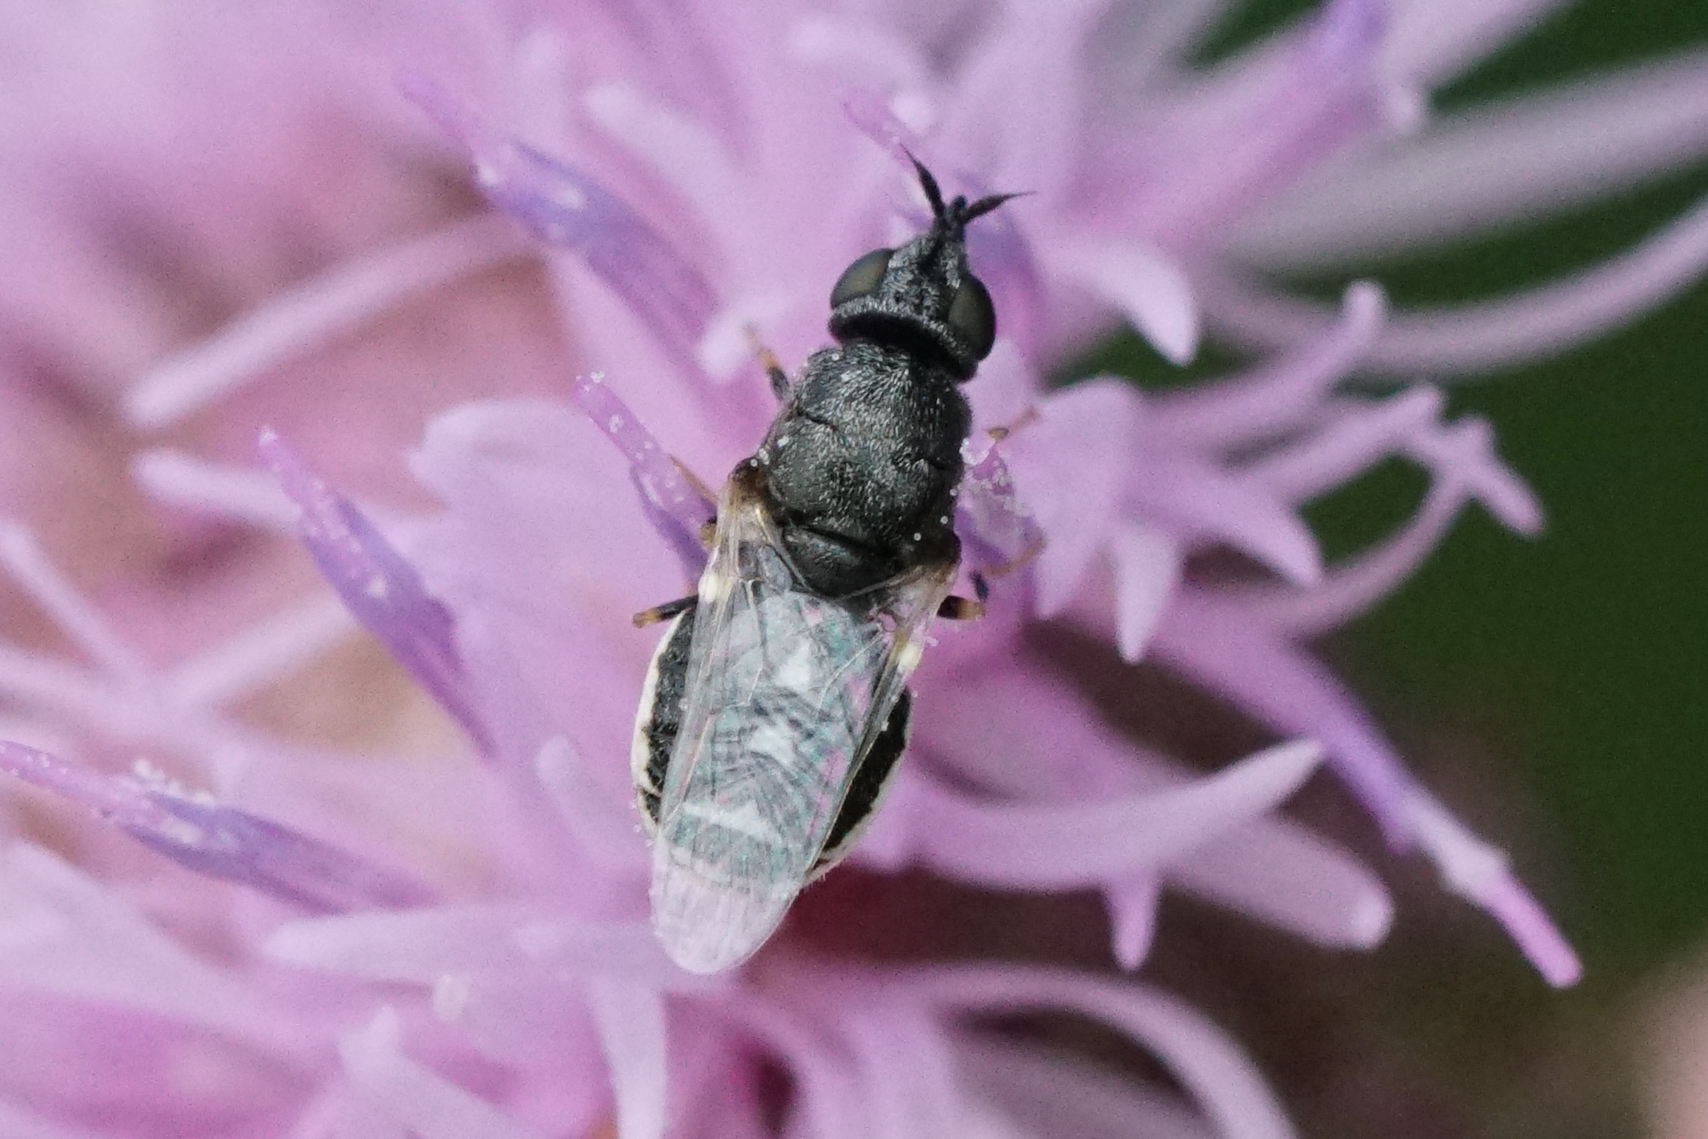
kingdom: Animalia
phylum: Arthropoda
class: Insecta
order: Diptera
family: Stratiomyidae
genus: Nemotelus
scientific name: Nemotelus kansensis
